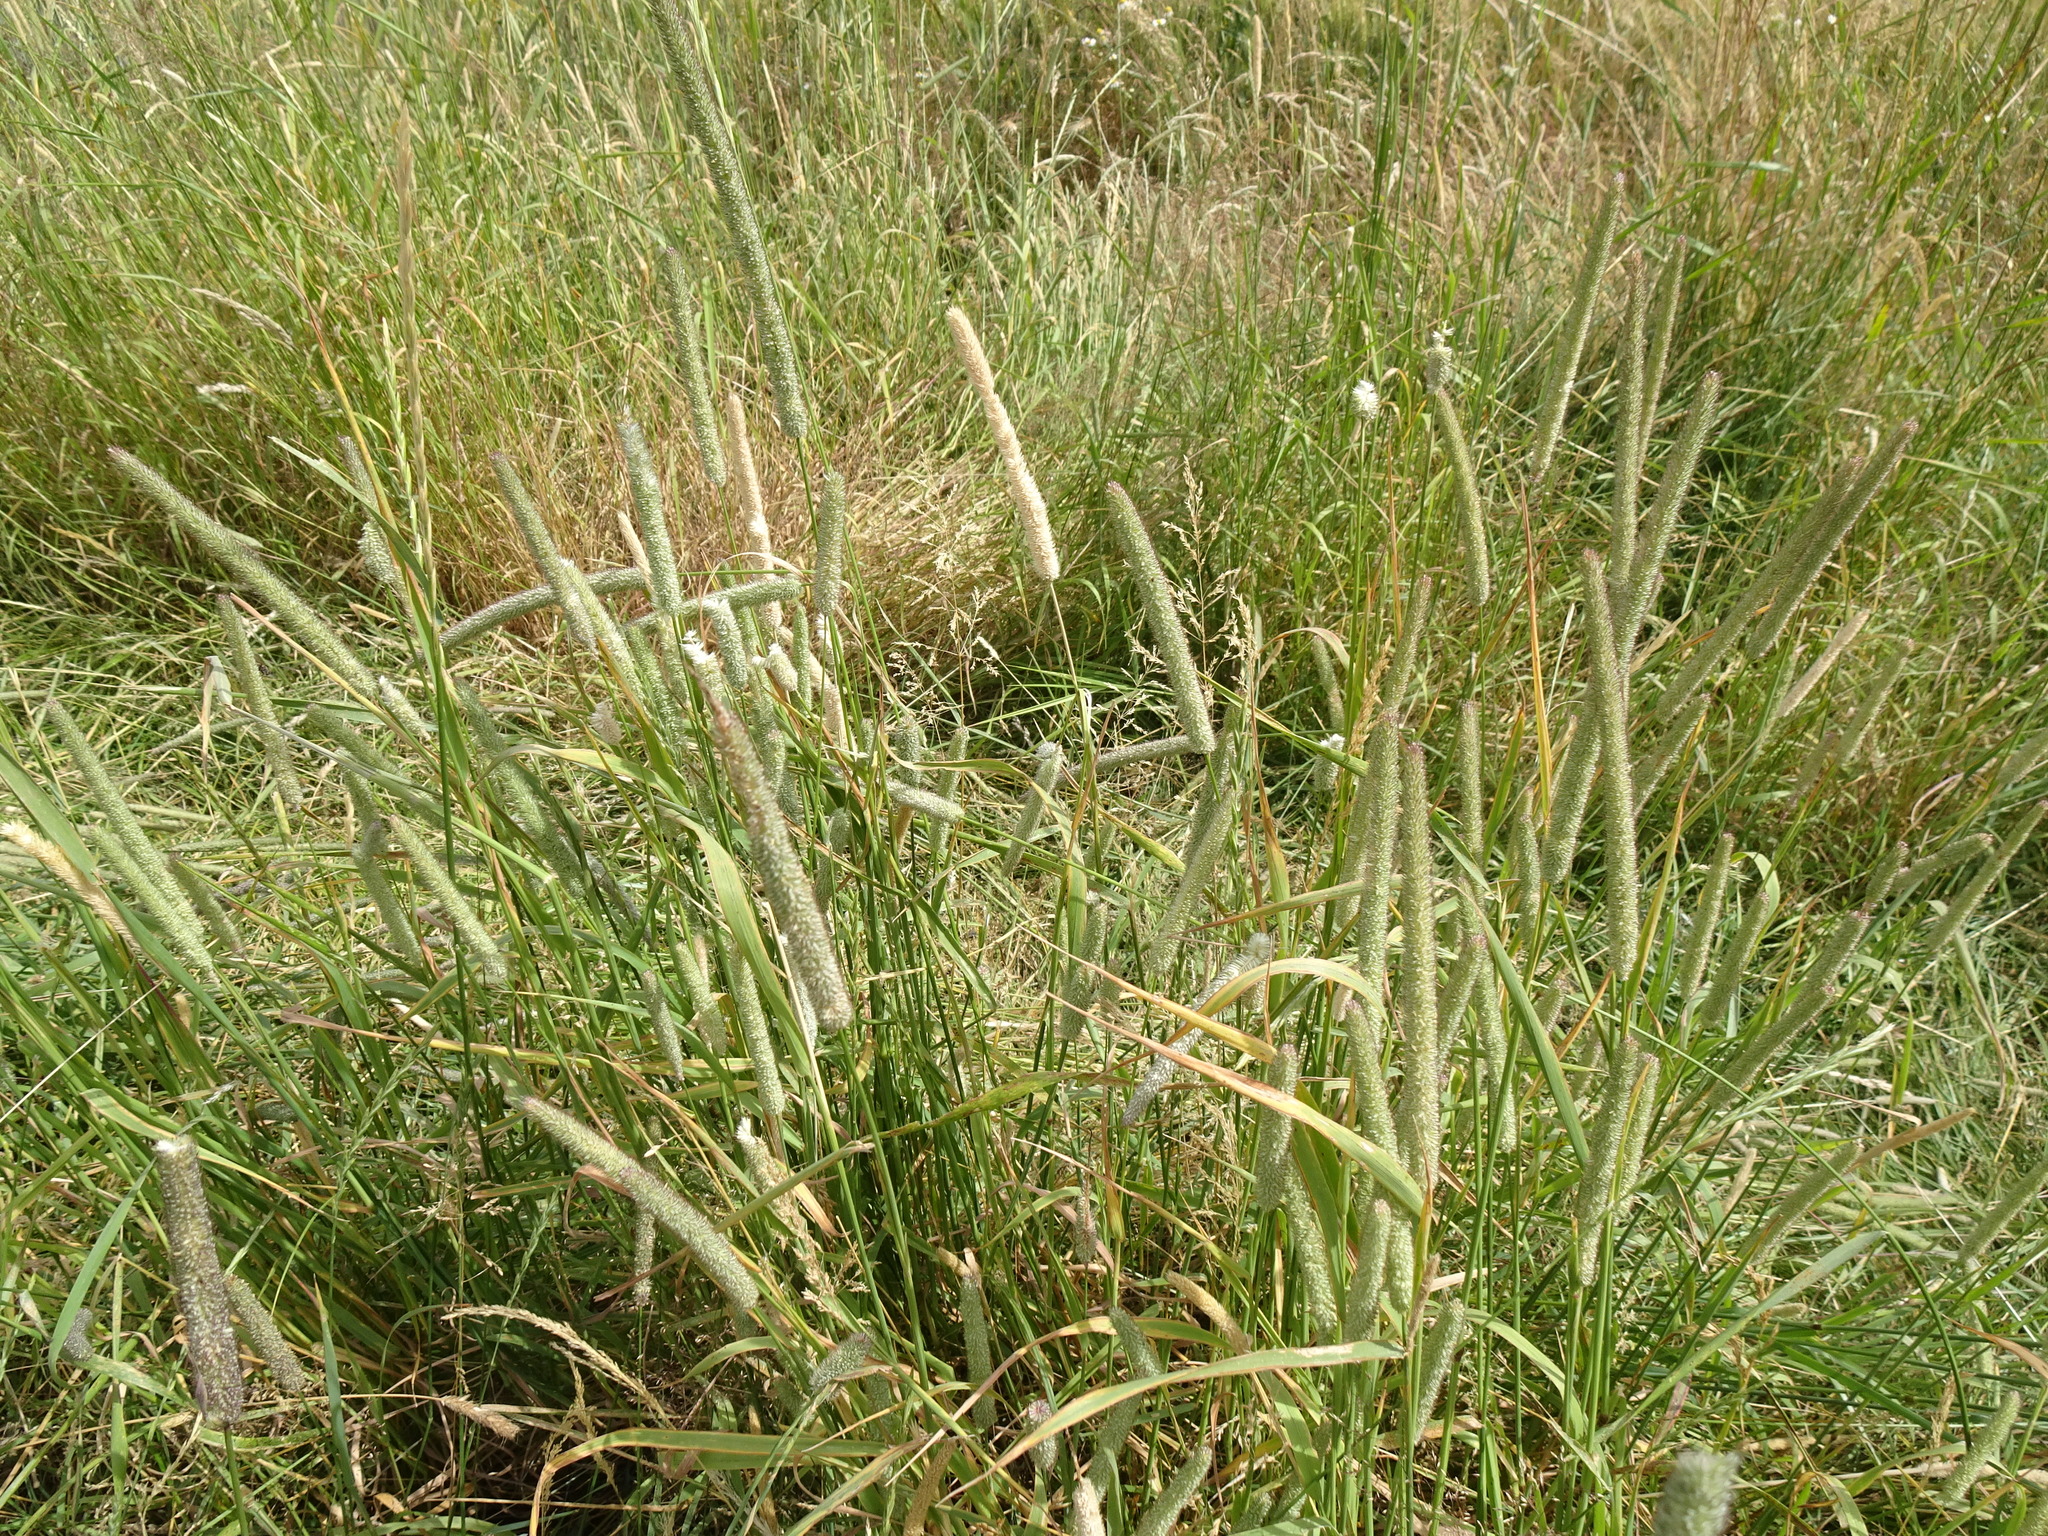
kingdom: Plantae
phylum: Tracheophyta
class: Liliopsida
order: Poales
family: Poaceae
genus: Phleum
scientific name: Phleum pratense
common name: Timothy grass
